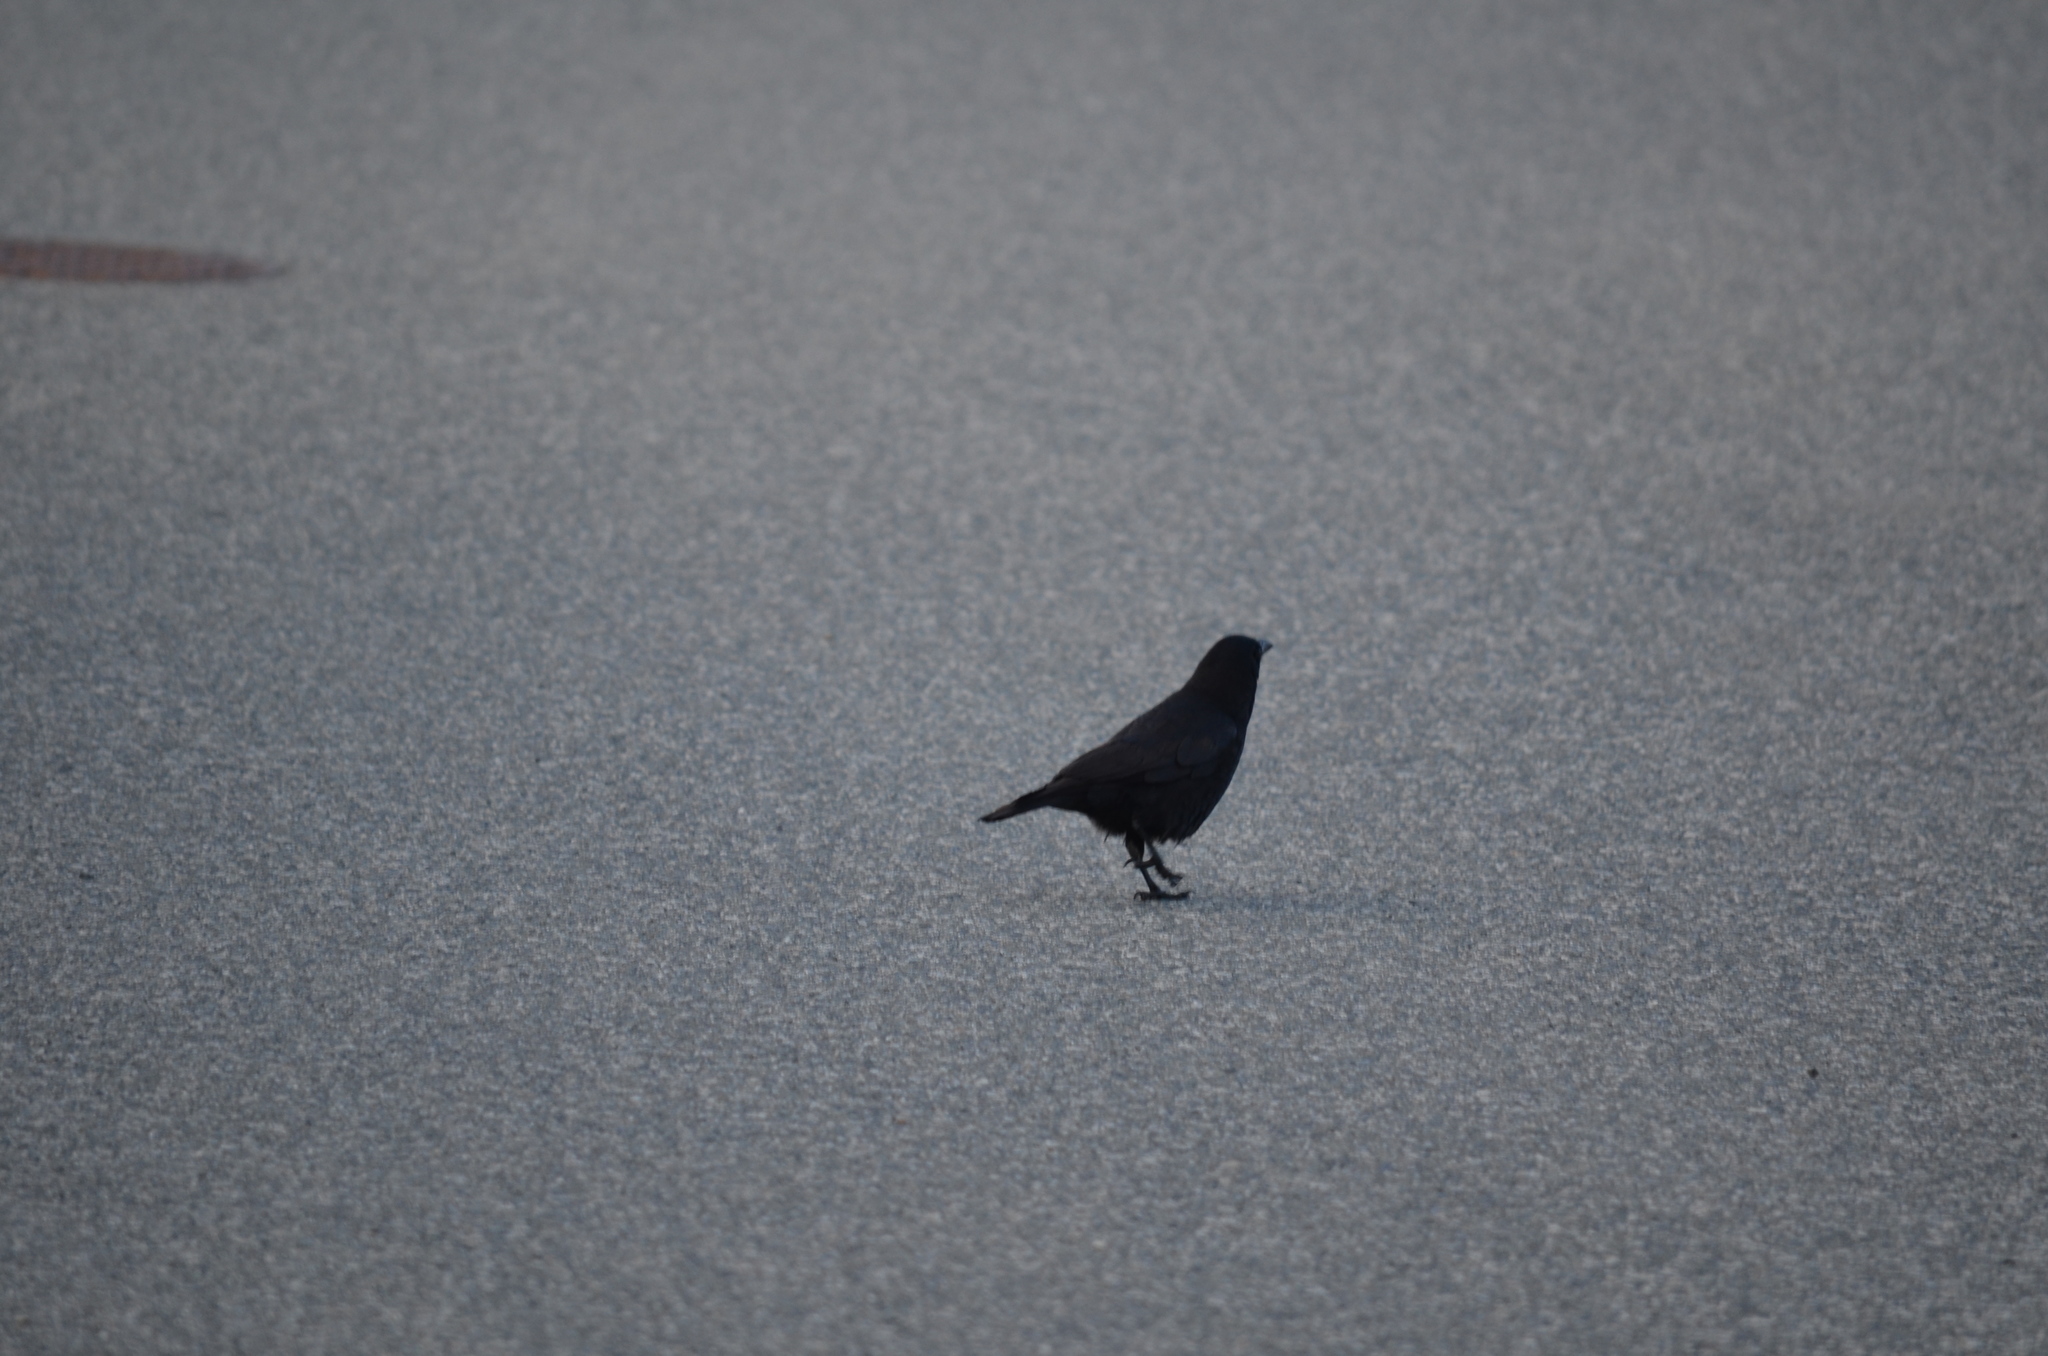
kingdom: Animalia
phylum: Chordata
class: Aves
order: Passeriformes
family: Corvidae
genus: Corvus
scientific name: Corvus brachyrhynchos
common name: American crow
